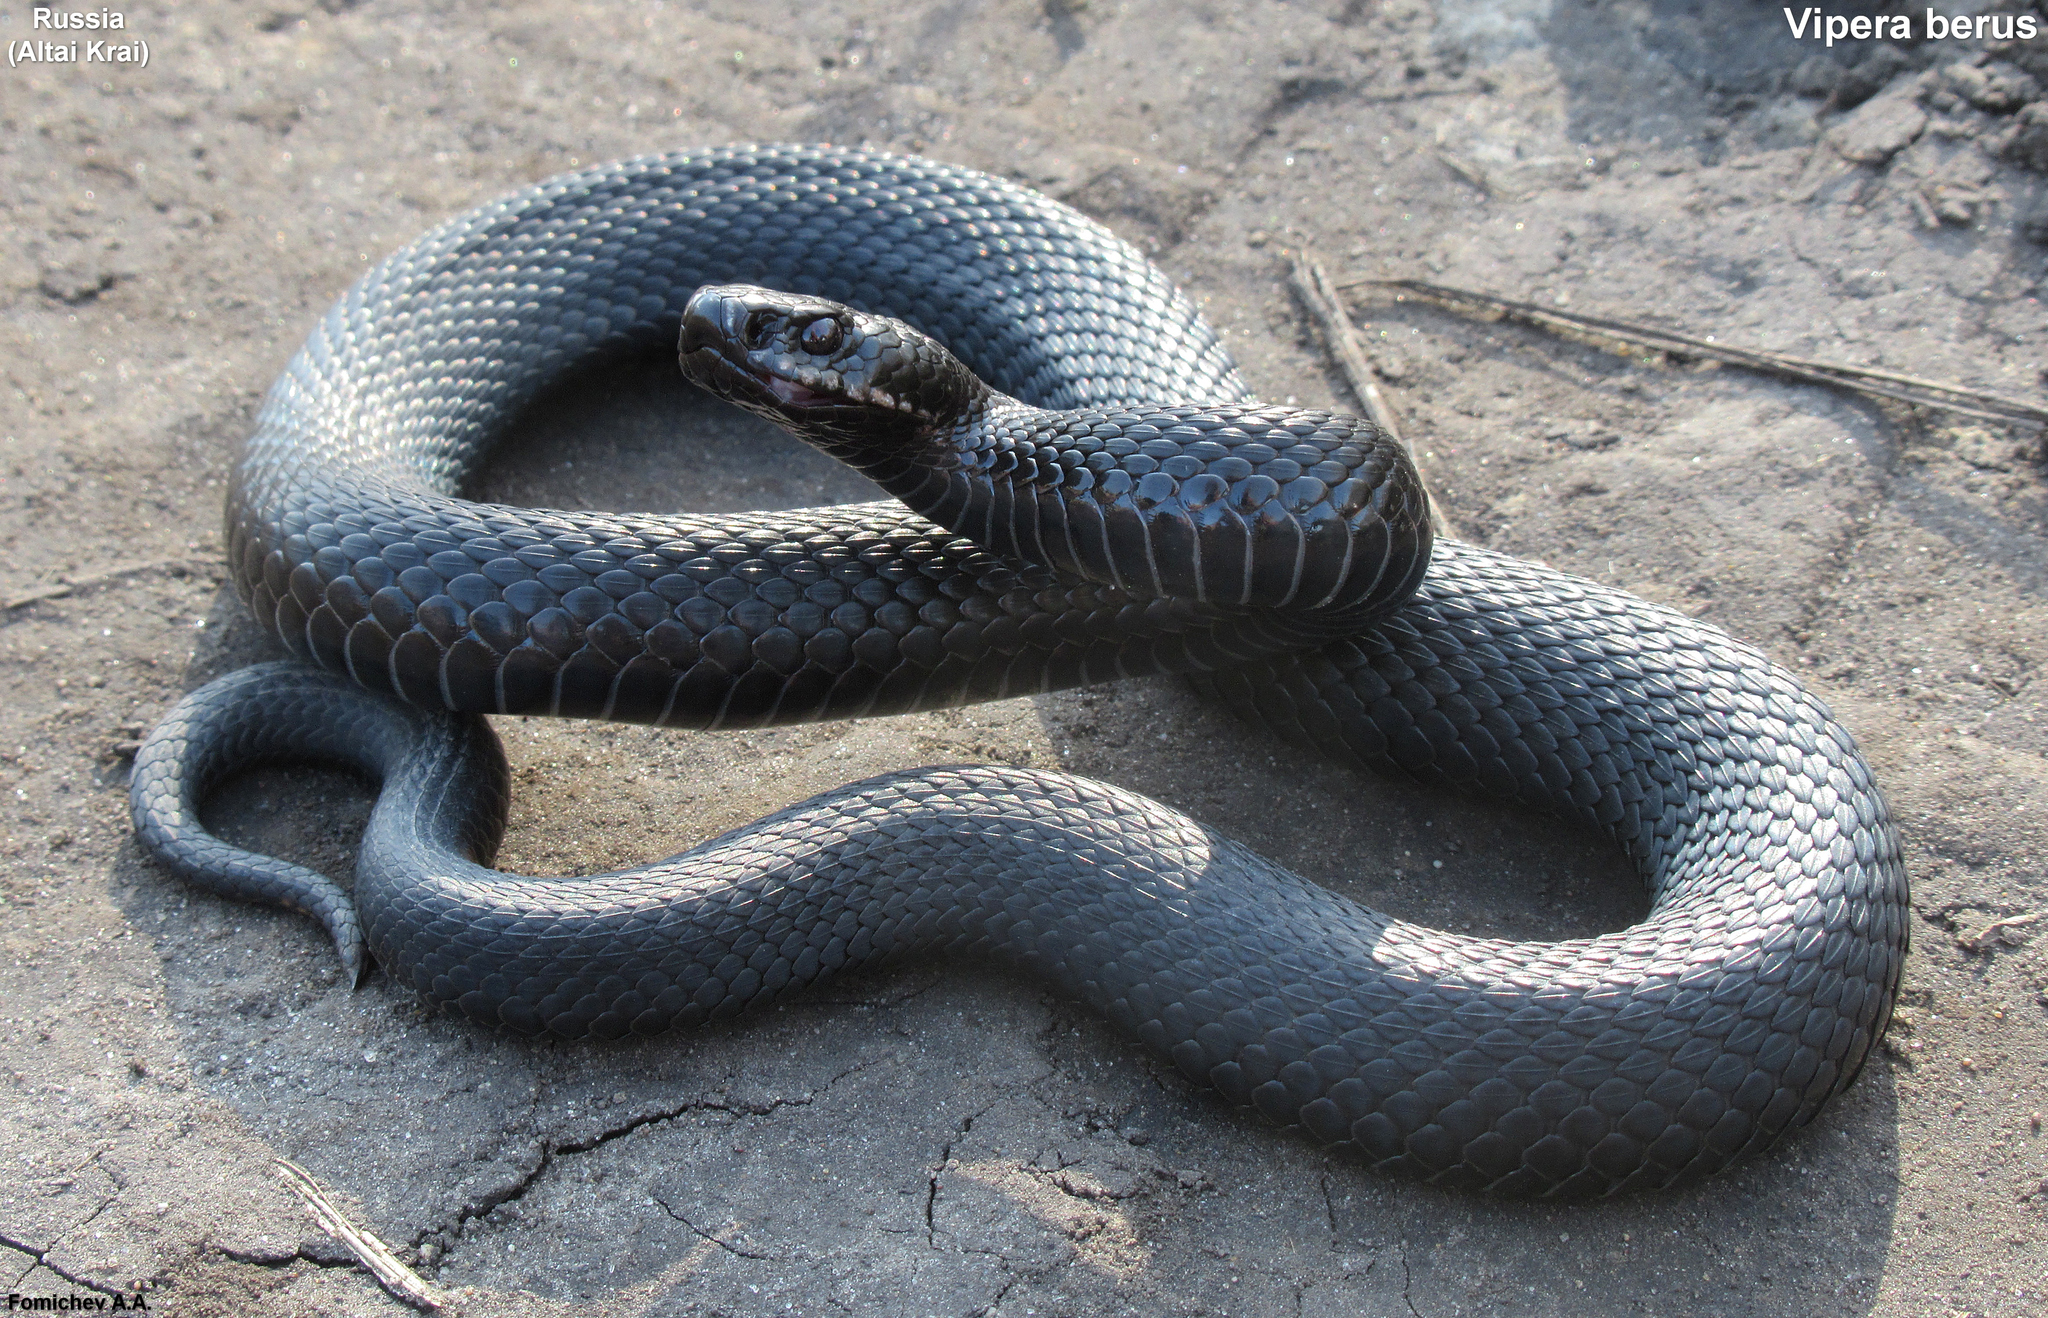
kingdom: Animalia
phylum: Chordata
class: Squamata
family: Viperidae
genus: Vipera
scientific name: Vipera berus
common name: Adder
